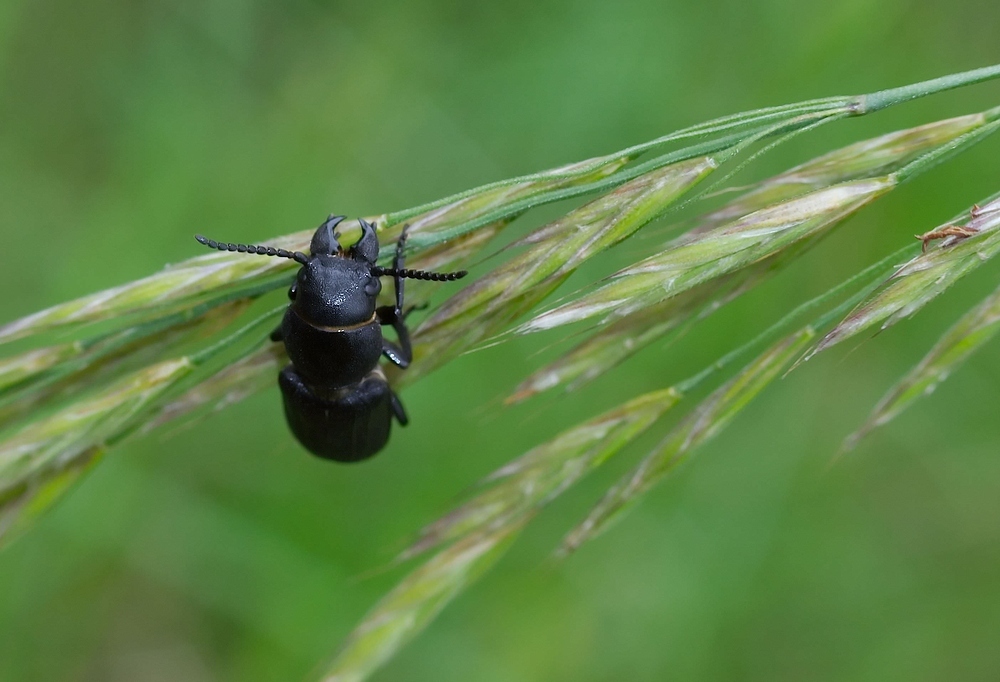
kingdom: Animalia
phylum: Arthropoda
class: Insecta
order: Coleoptera
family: Cerambycidae
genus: Spondylis
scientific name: Spondylis buprestoides
